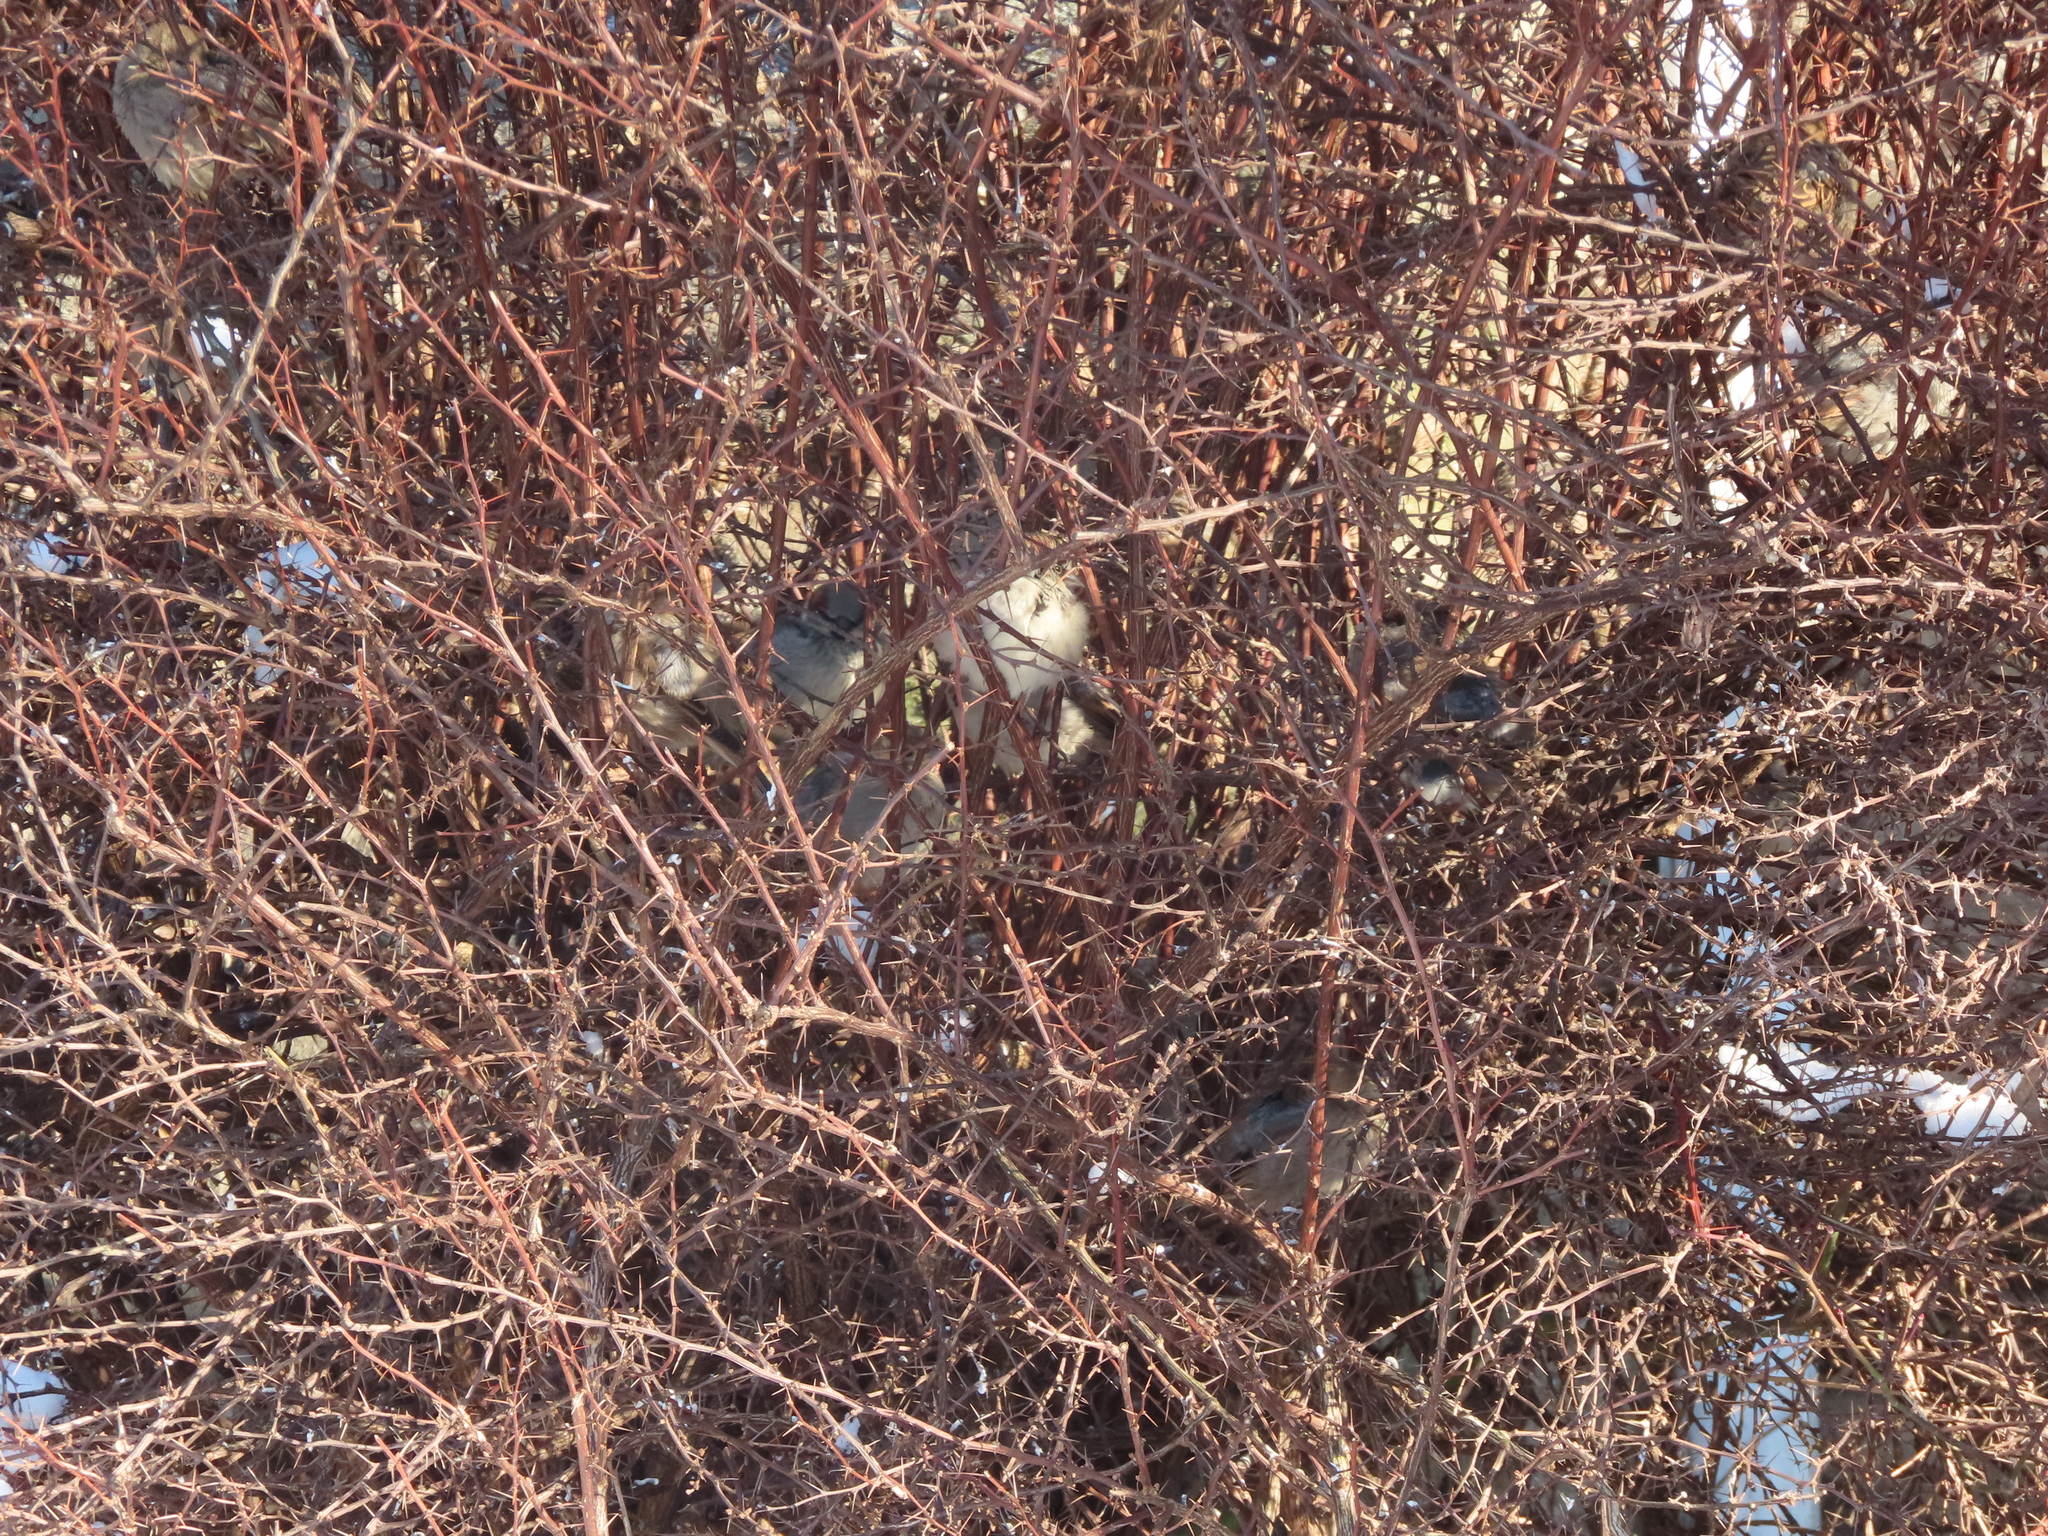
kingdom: Animalia
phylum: Chordata
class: Aves
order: Passeriformes
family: Passeridae
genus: Passer
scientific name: Passer domesticus
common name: House sparrow
